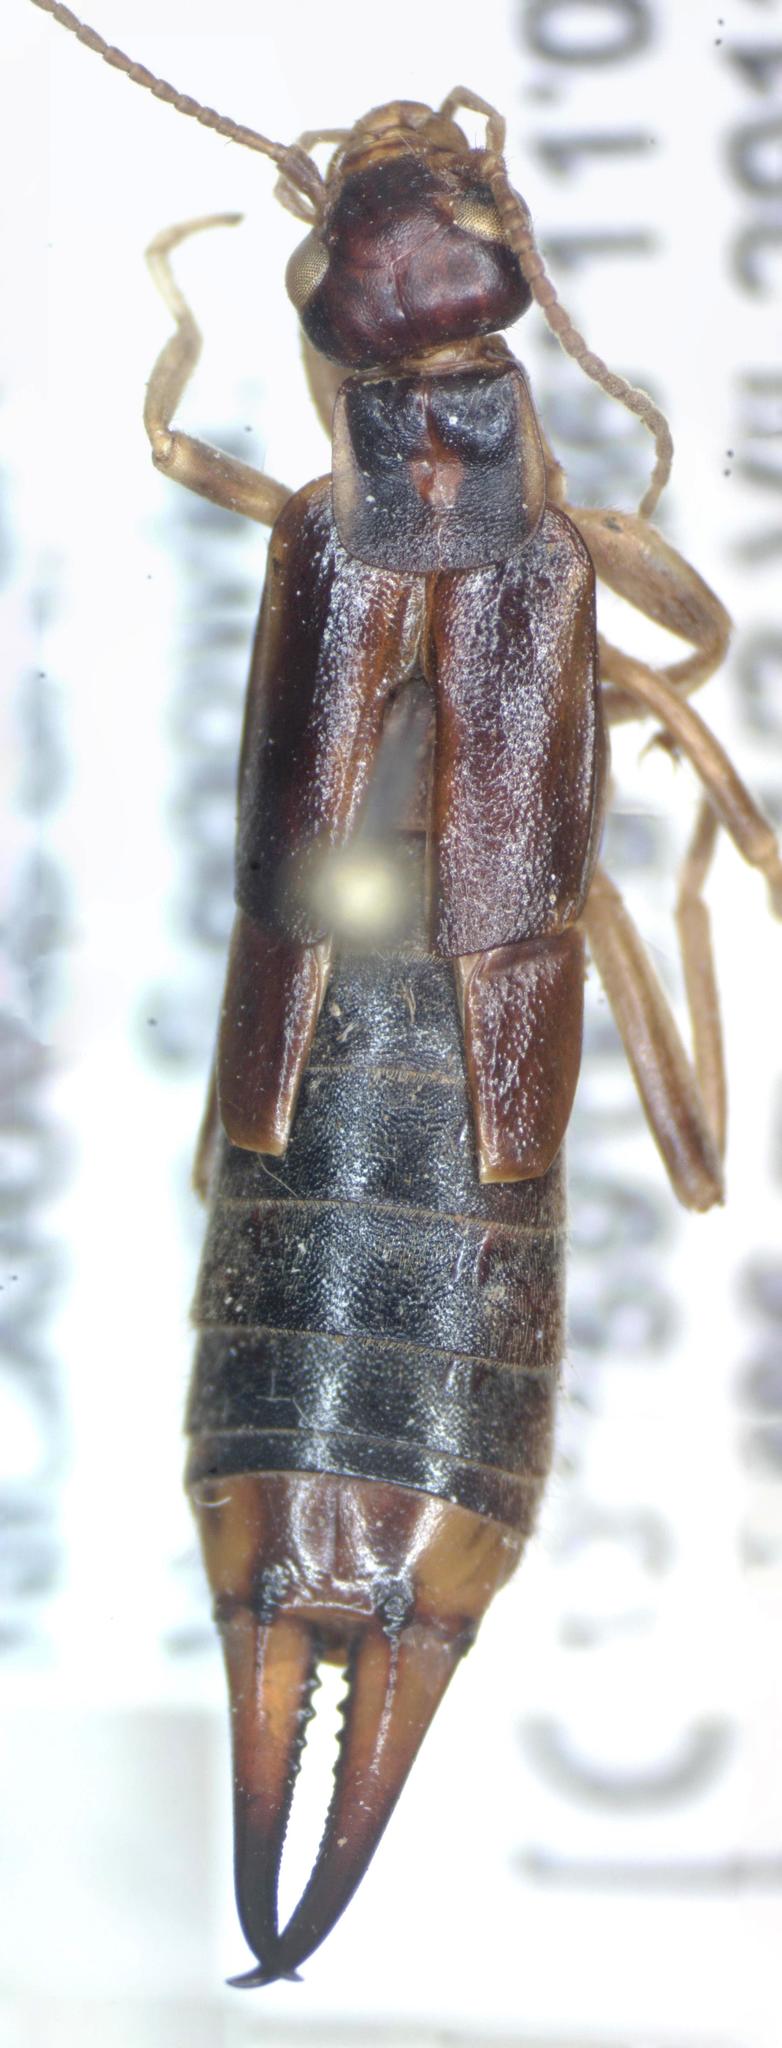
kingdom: Animalia
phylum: Arthropoda
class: Insecta
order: Dermaptera
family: Labiduridae
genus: Labidura
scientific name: Labidura riparia
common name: Striped earwig
